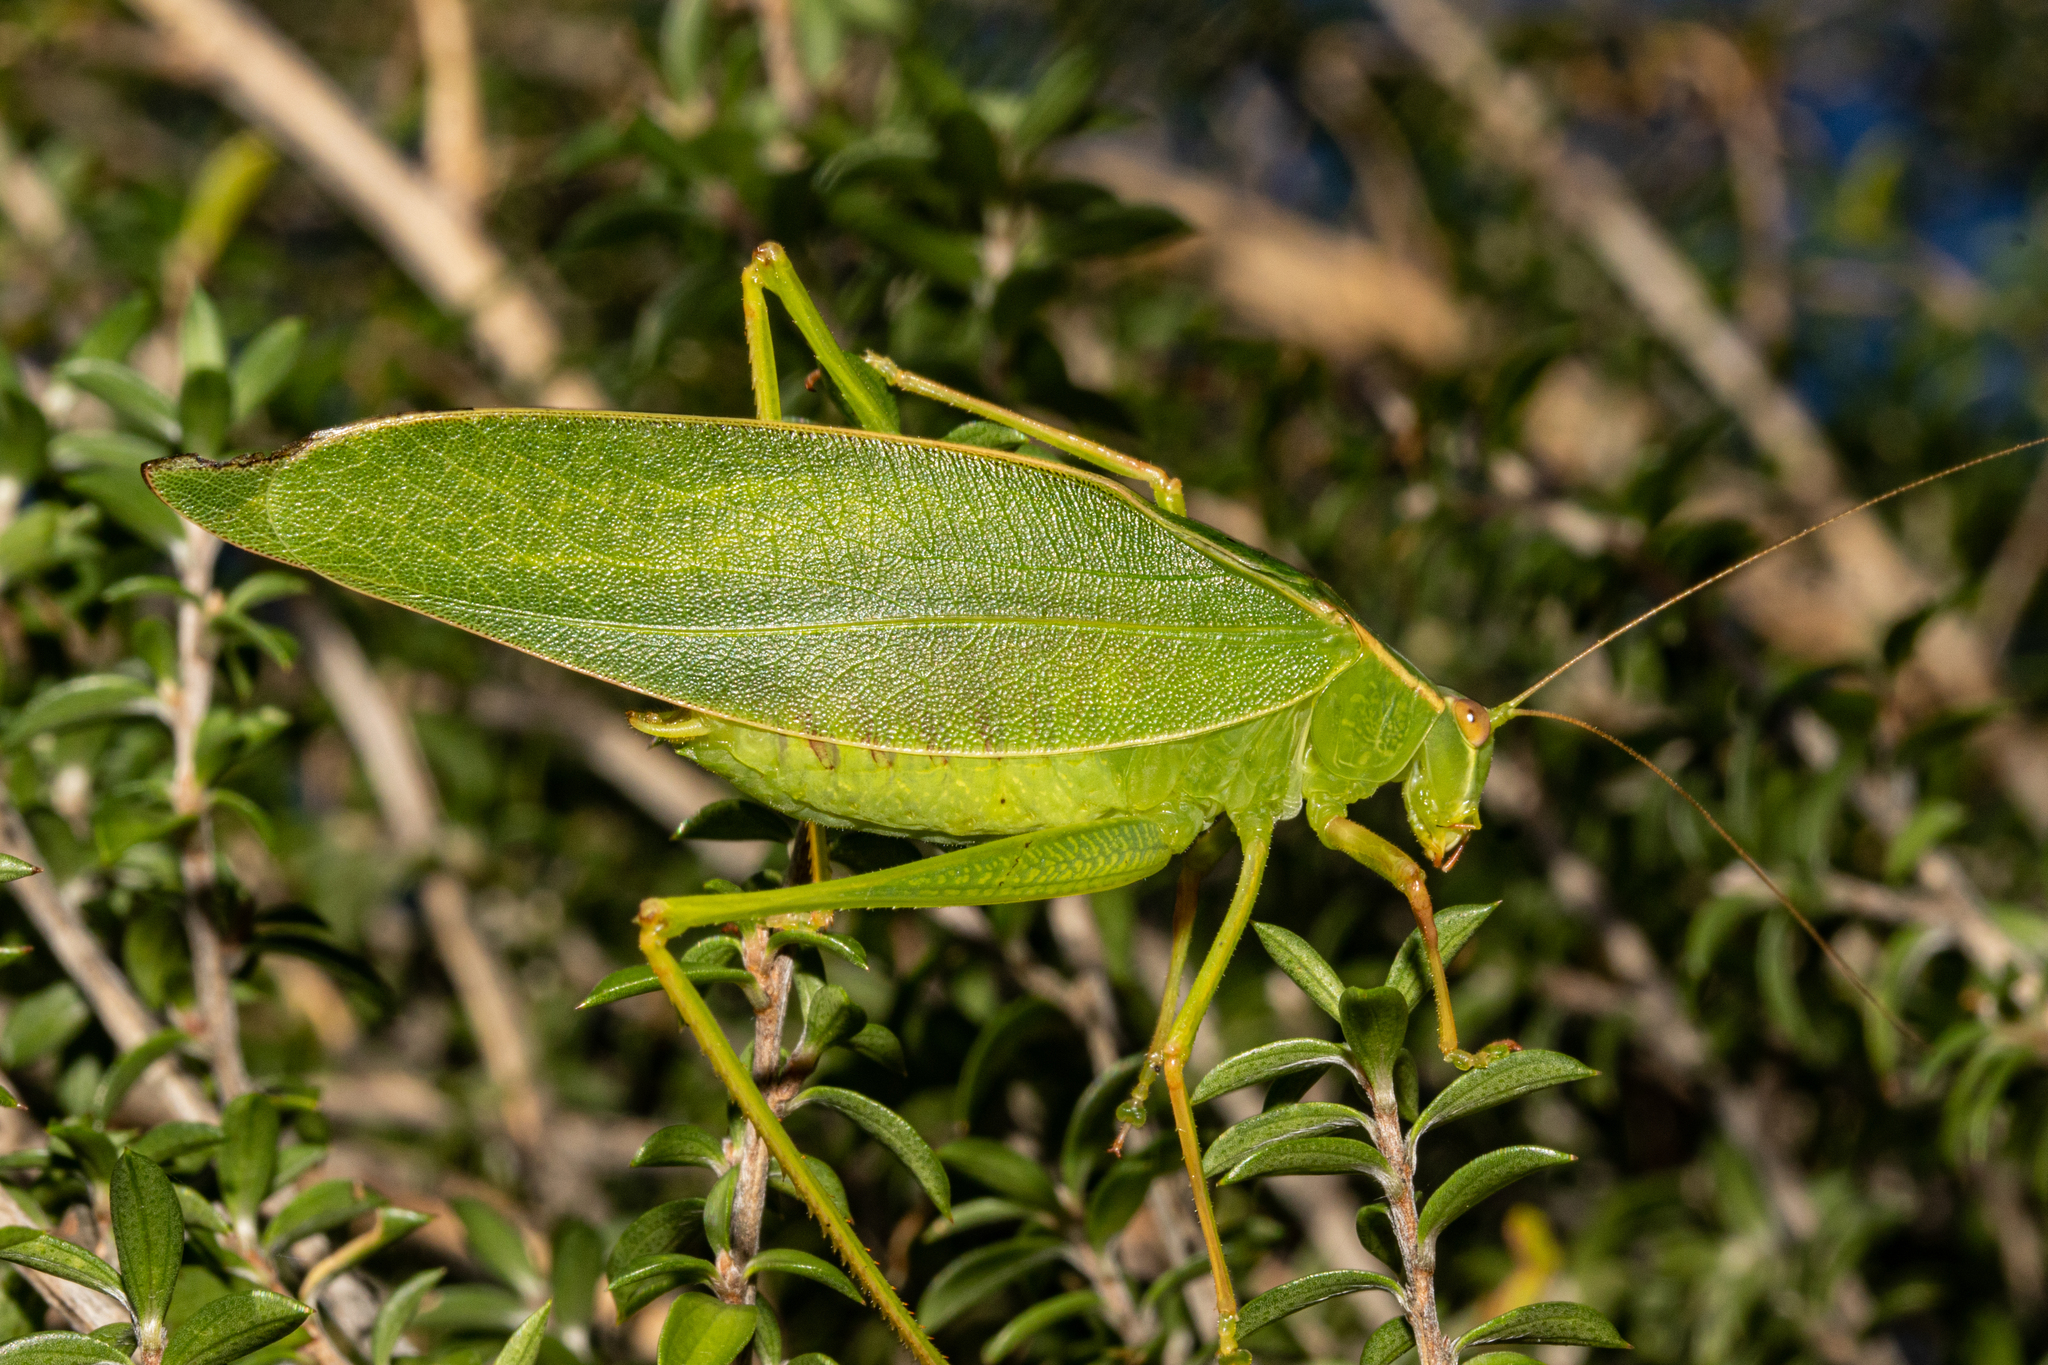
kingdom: Animalia
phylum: Arthropoda
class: Insecta
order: Orthoptera
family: Tettigoniidae
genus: Caedicia
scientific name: Caedicia simplex
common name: Common garden katydid
